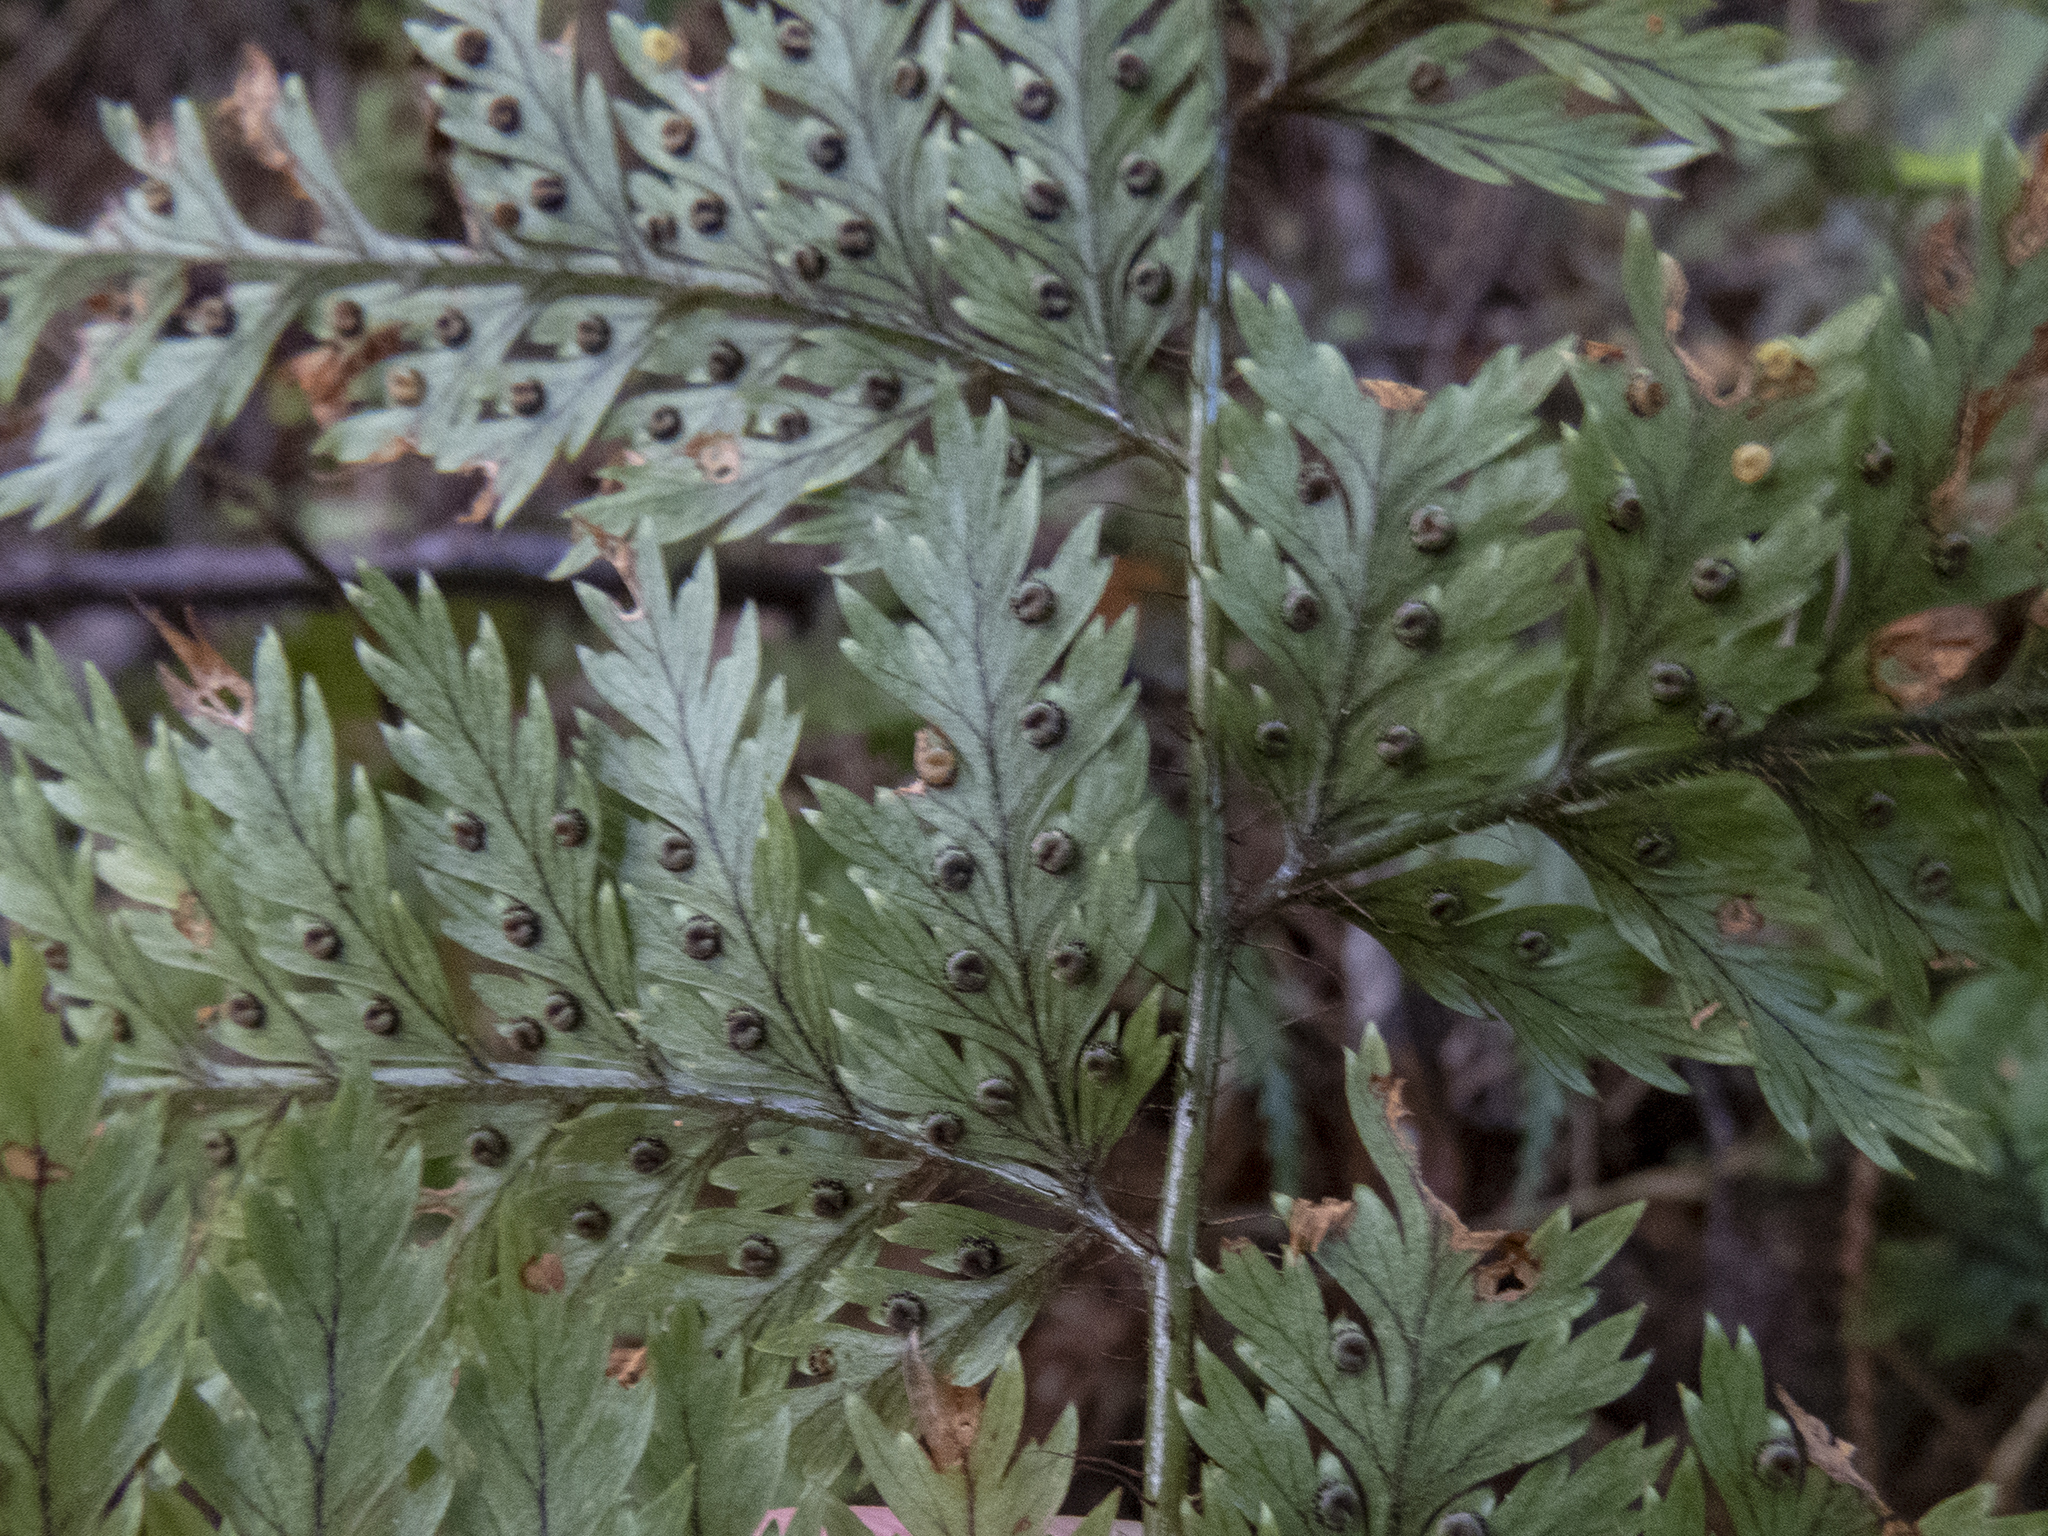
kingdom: Plantae
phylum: Tracheophyta
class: Polypodiopsida
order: Polypodiales
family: Dryopteridaceae
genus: Lastreopsis
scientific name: Lastreopsis hispida
